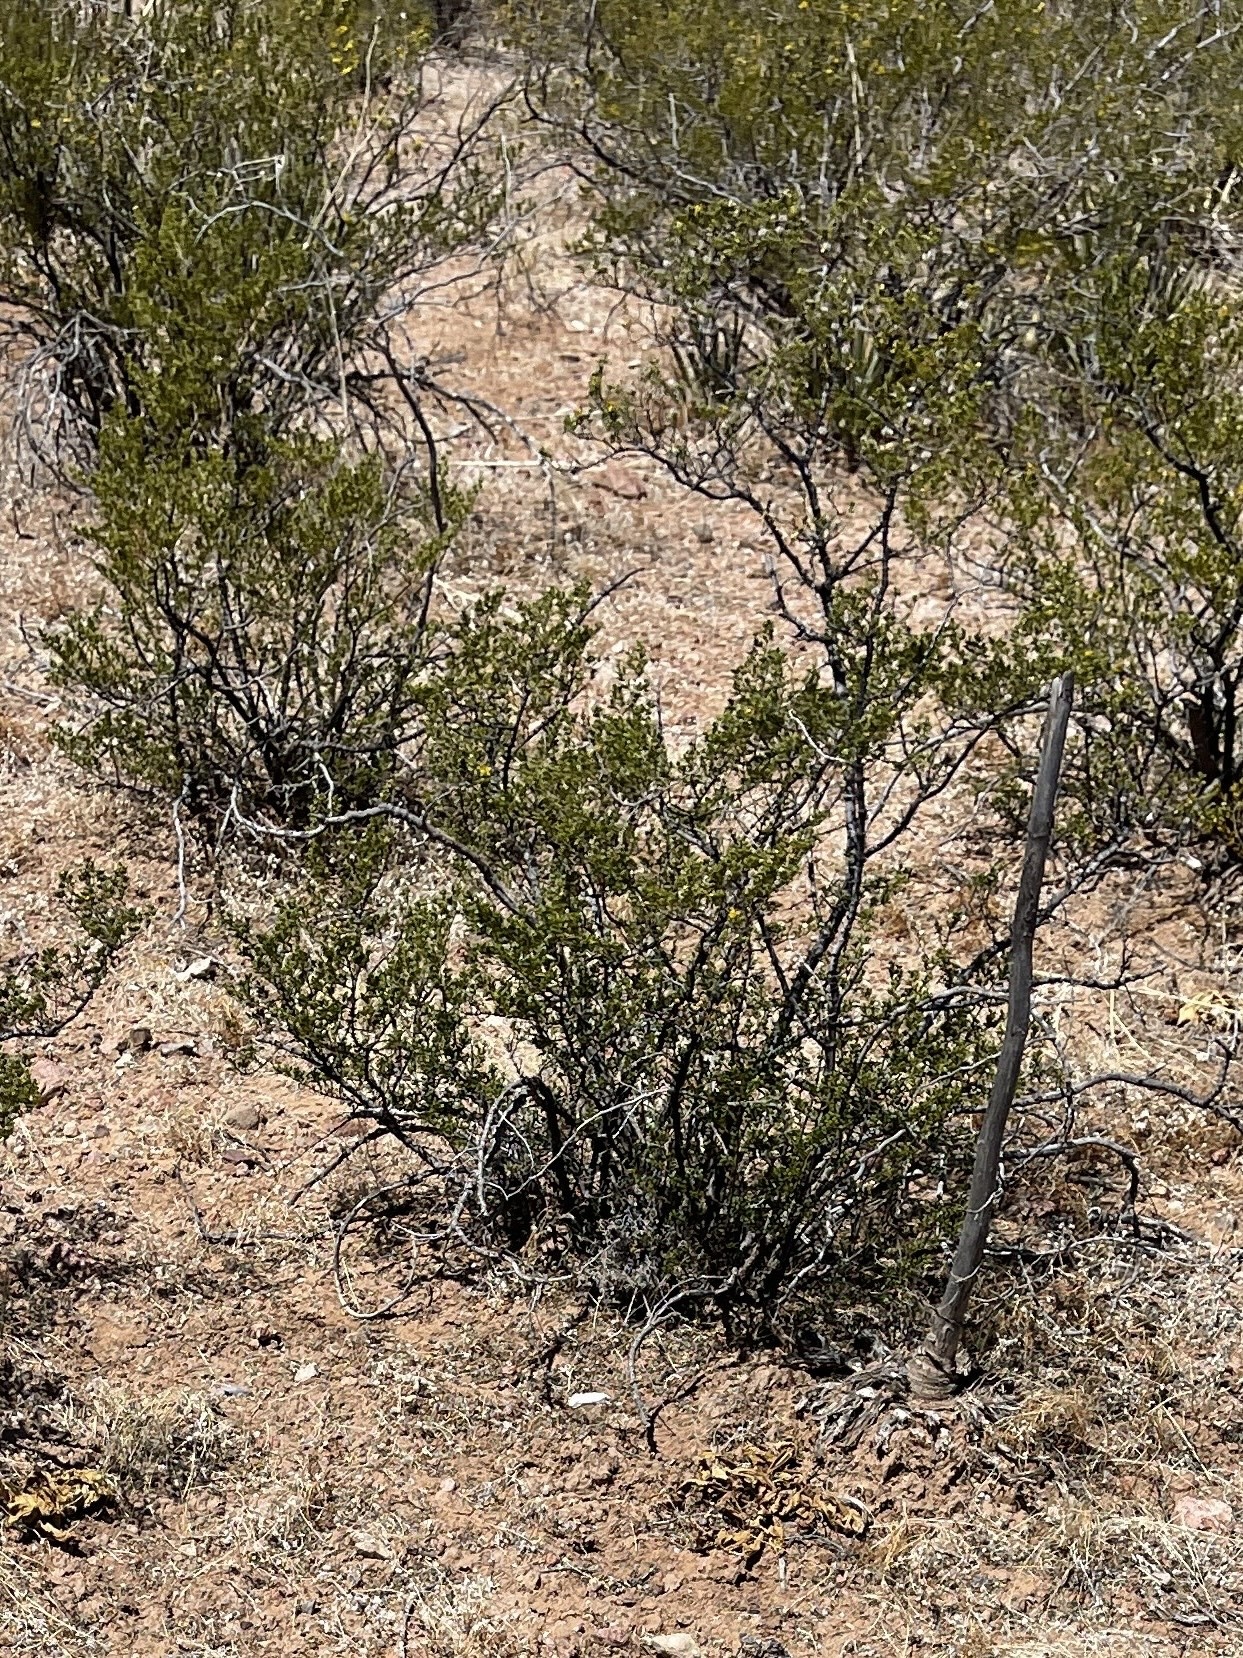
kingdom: Plantae
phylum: Tracheophyta
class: Magnoliopsida
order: Zygophyllales
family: Zygophyllaceae
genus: Larrea
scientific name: Larrea tridentata
